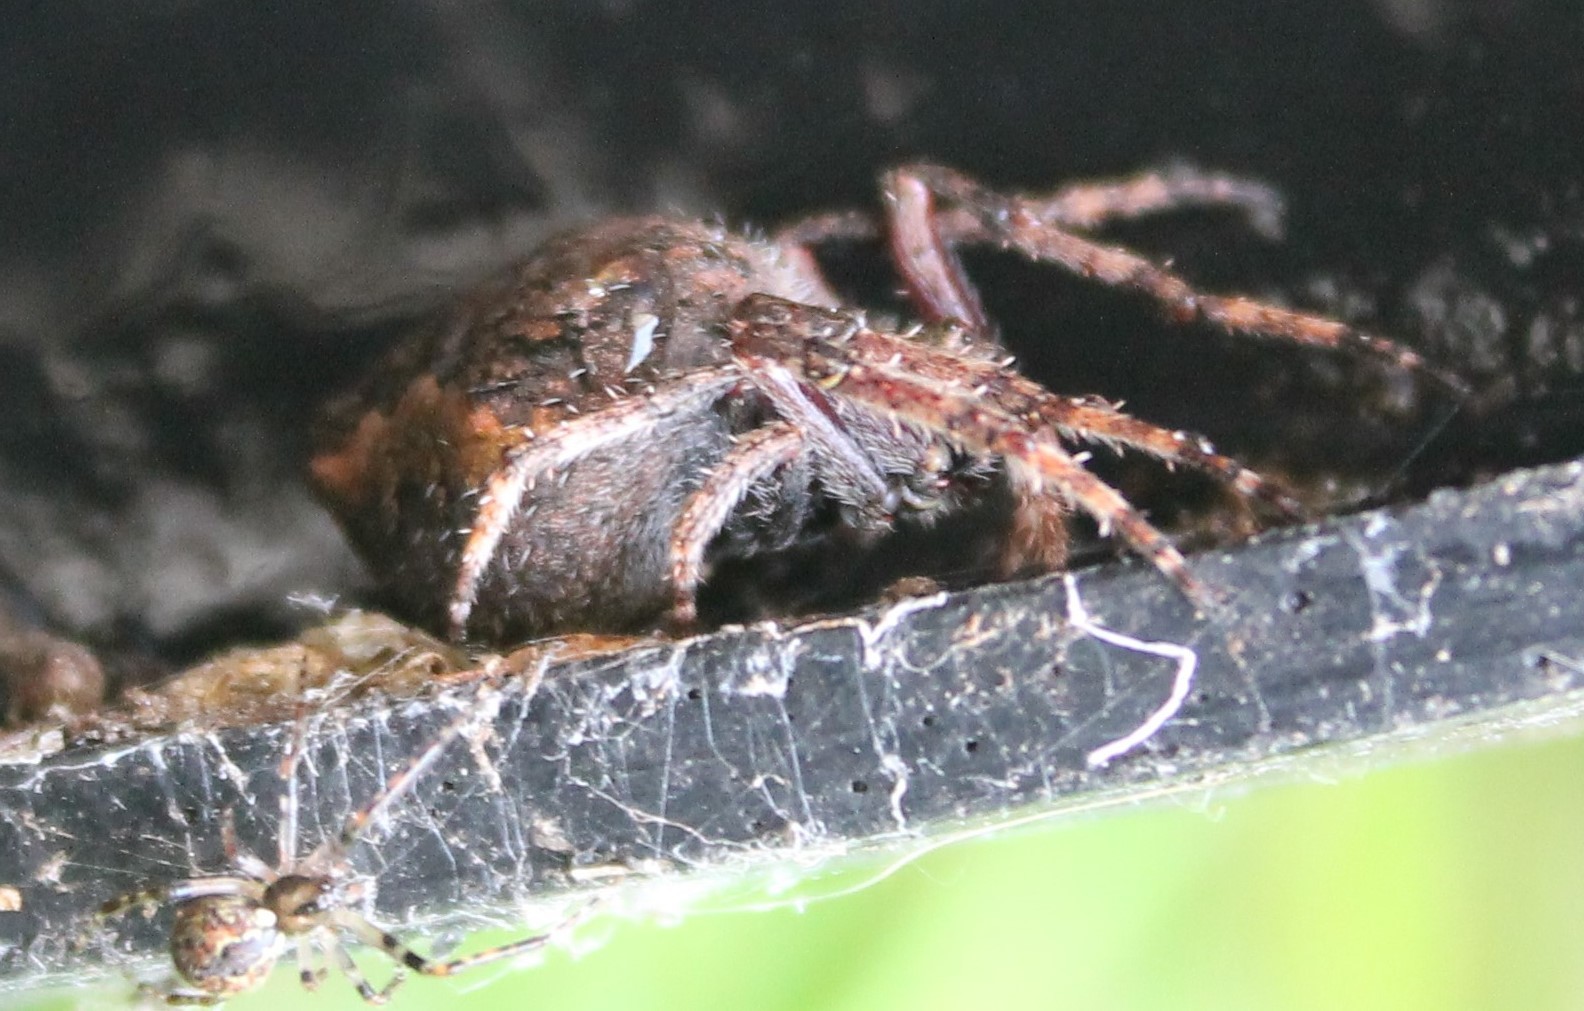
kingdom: Animalia
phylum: Arthropoda
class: Arachnida
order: Araneae
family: Araneidae
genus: Eriophora
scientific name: Eriophora pustulosa
